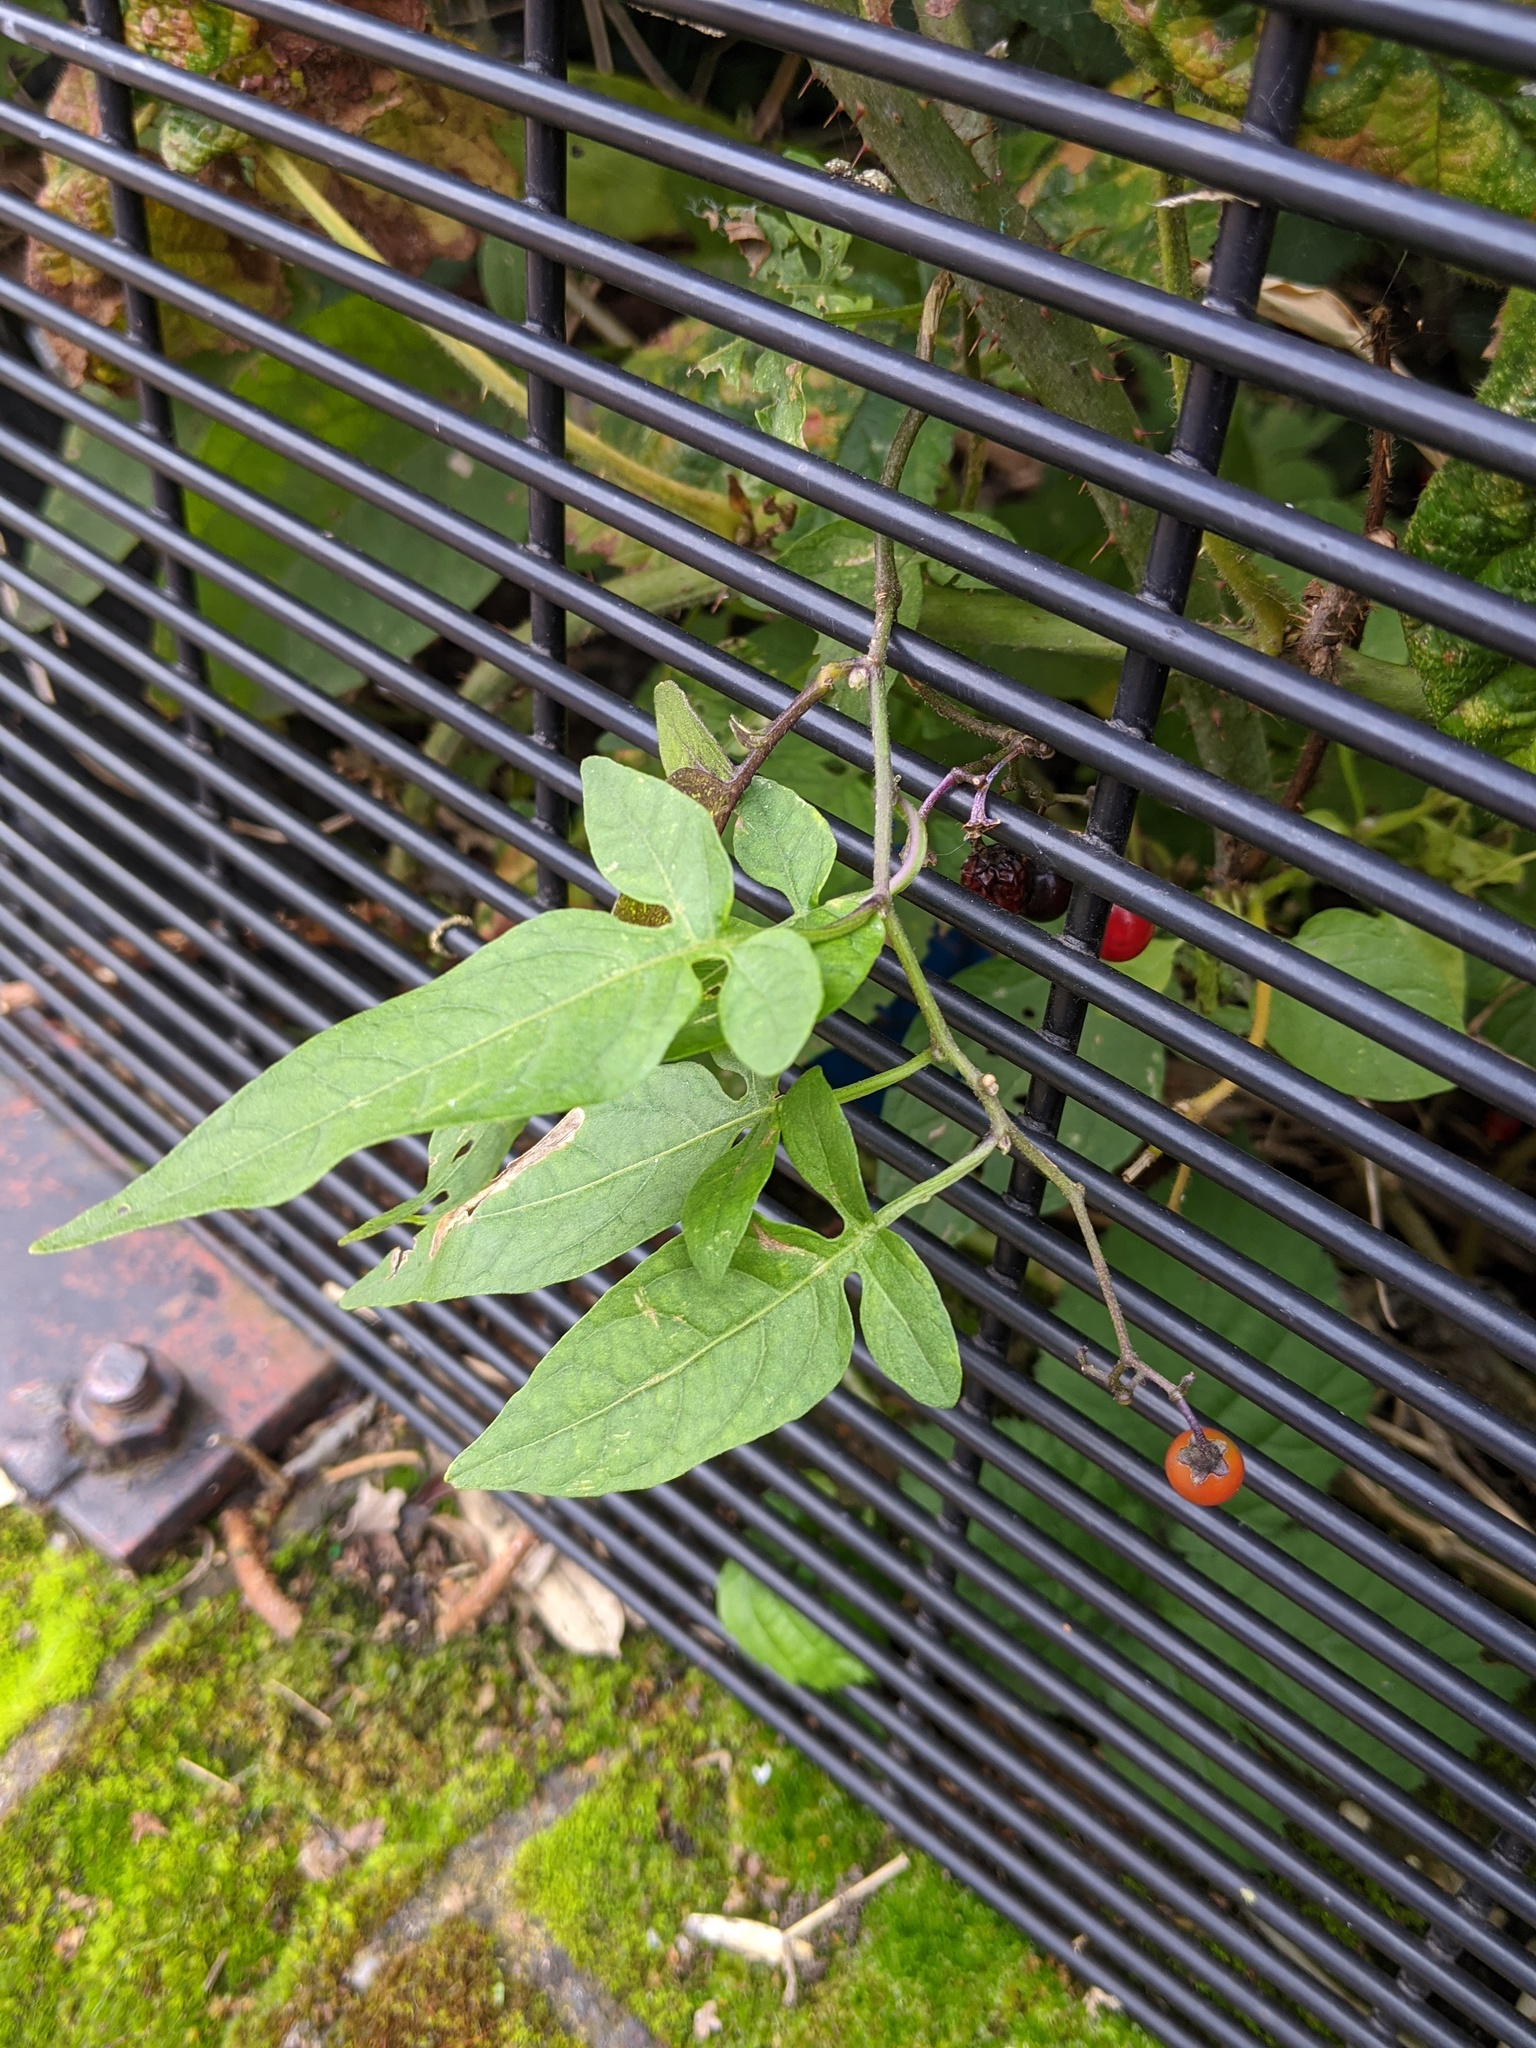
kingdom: Plantae
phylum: Tracheophyta
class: Magnoliopsida
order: Solanales
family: Solanaceae
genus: Solanum
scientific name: Solanum dulcamara
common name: Climbing nightshade
